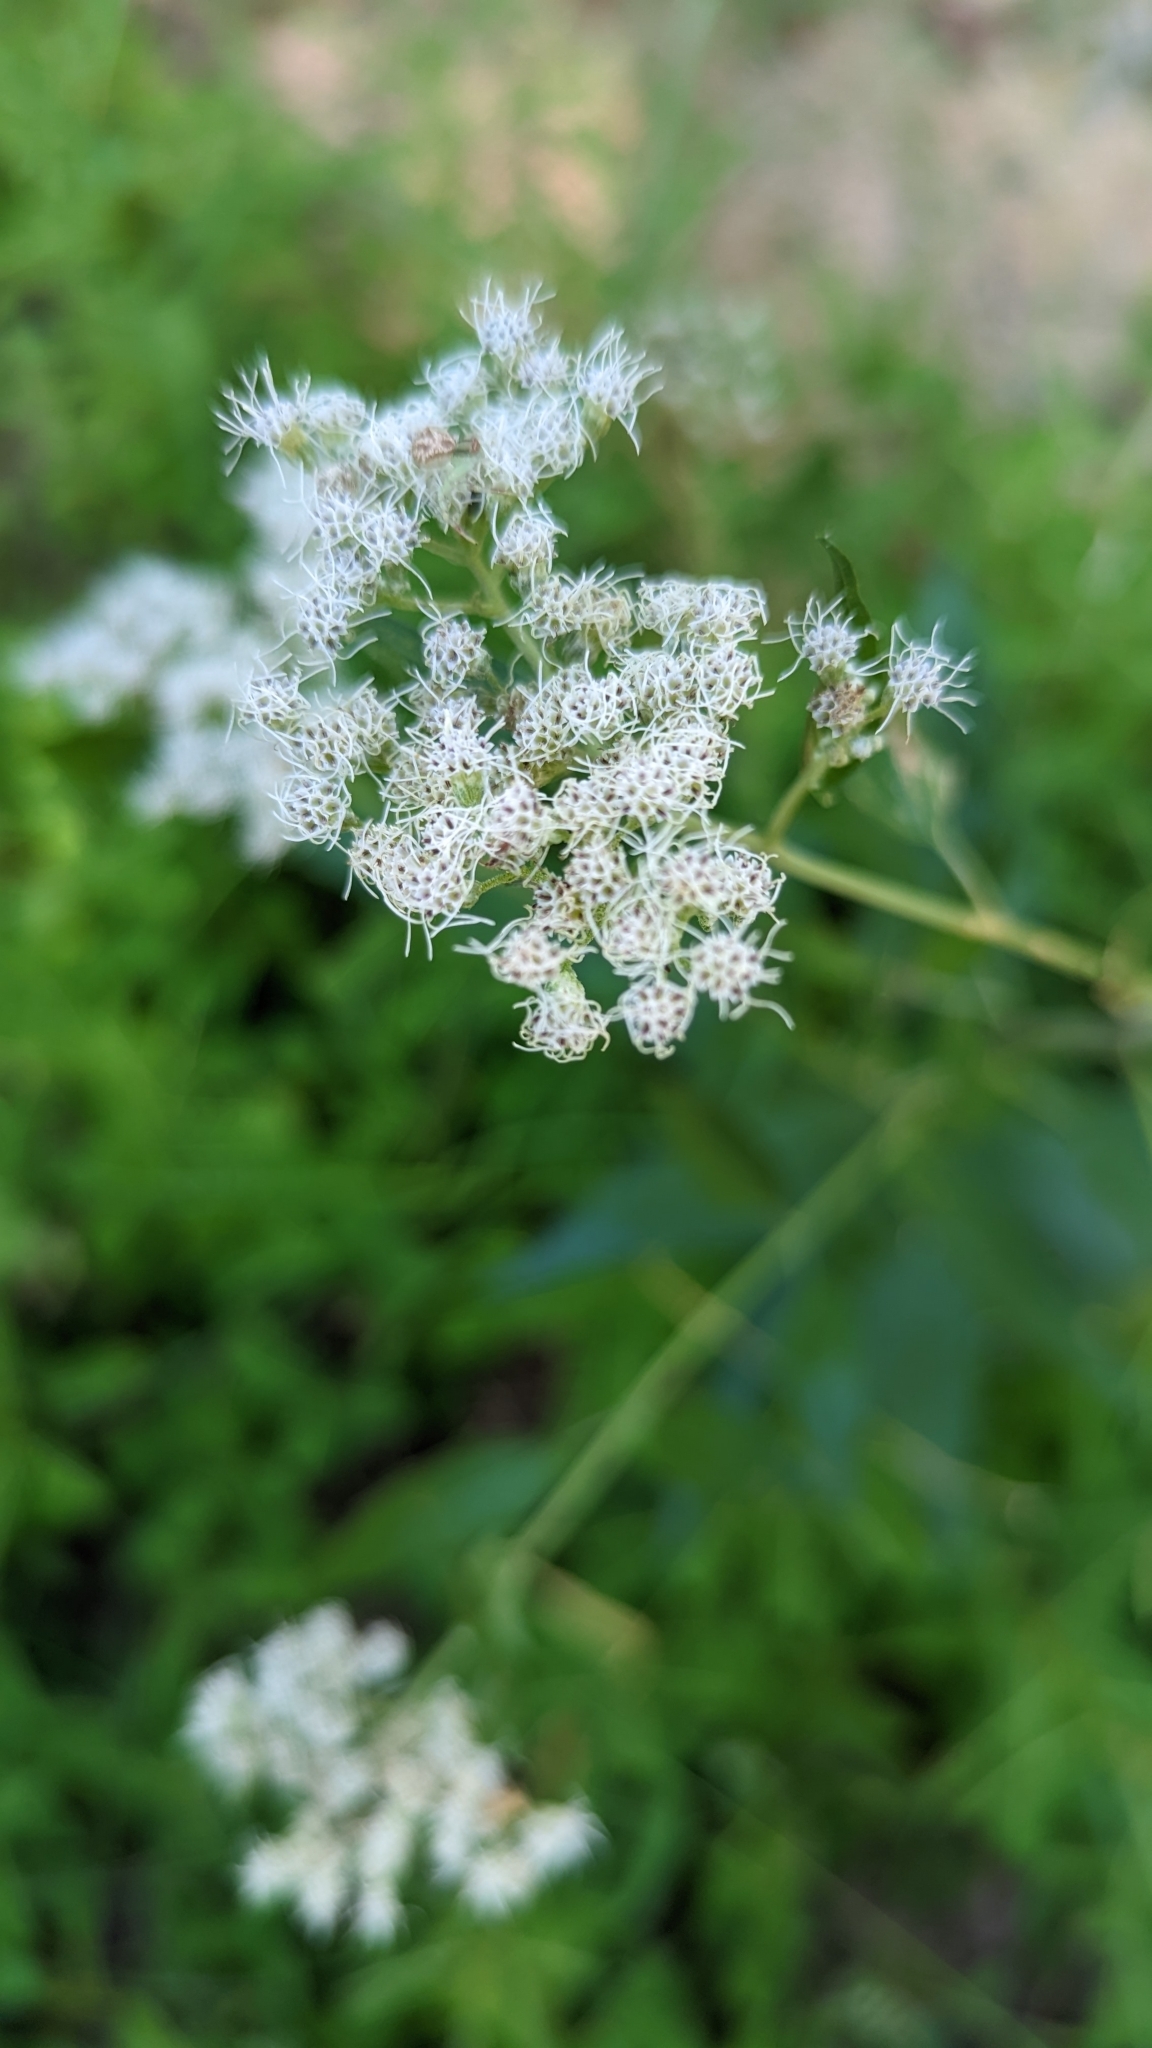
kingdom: Plantae
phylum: Tracheophyta
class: Magnoliopsida
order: Asterales
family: Asteraceae
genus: Eupatorium
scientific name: Eupatorium serotinum
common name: Late boneset
